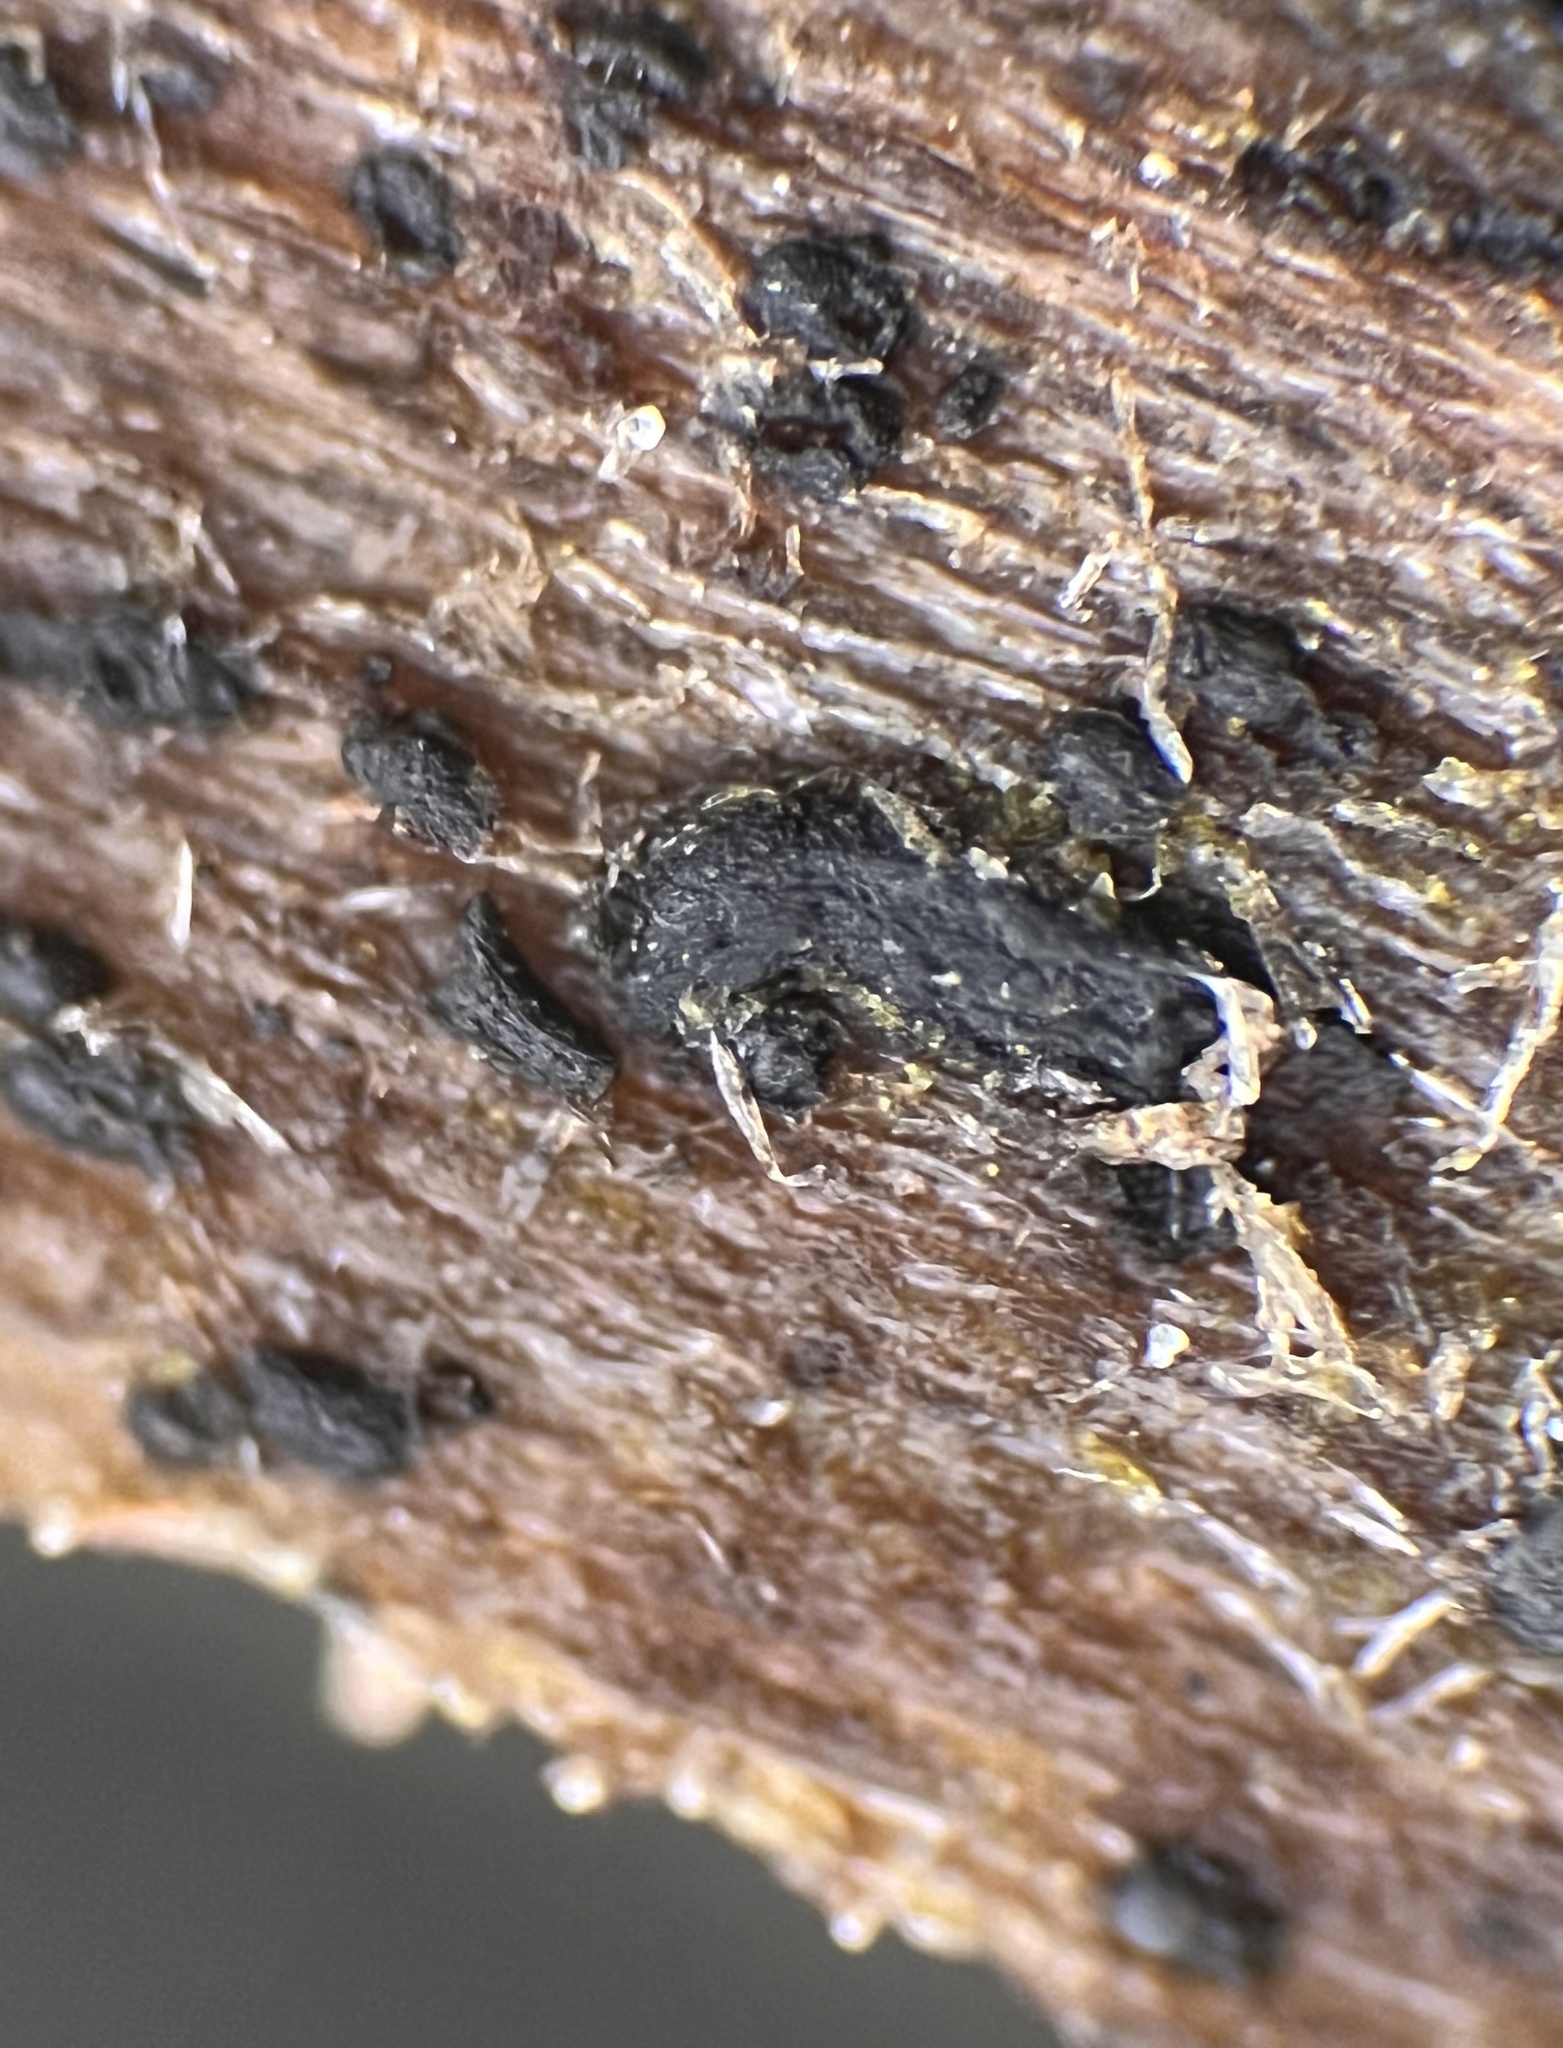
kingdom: Fungi
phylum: Ascomycota
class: Dothideomycetes
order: Mytilinidiales
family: Gloniaceae
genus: Psiloglonium
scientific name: Psiloglonium stygium
